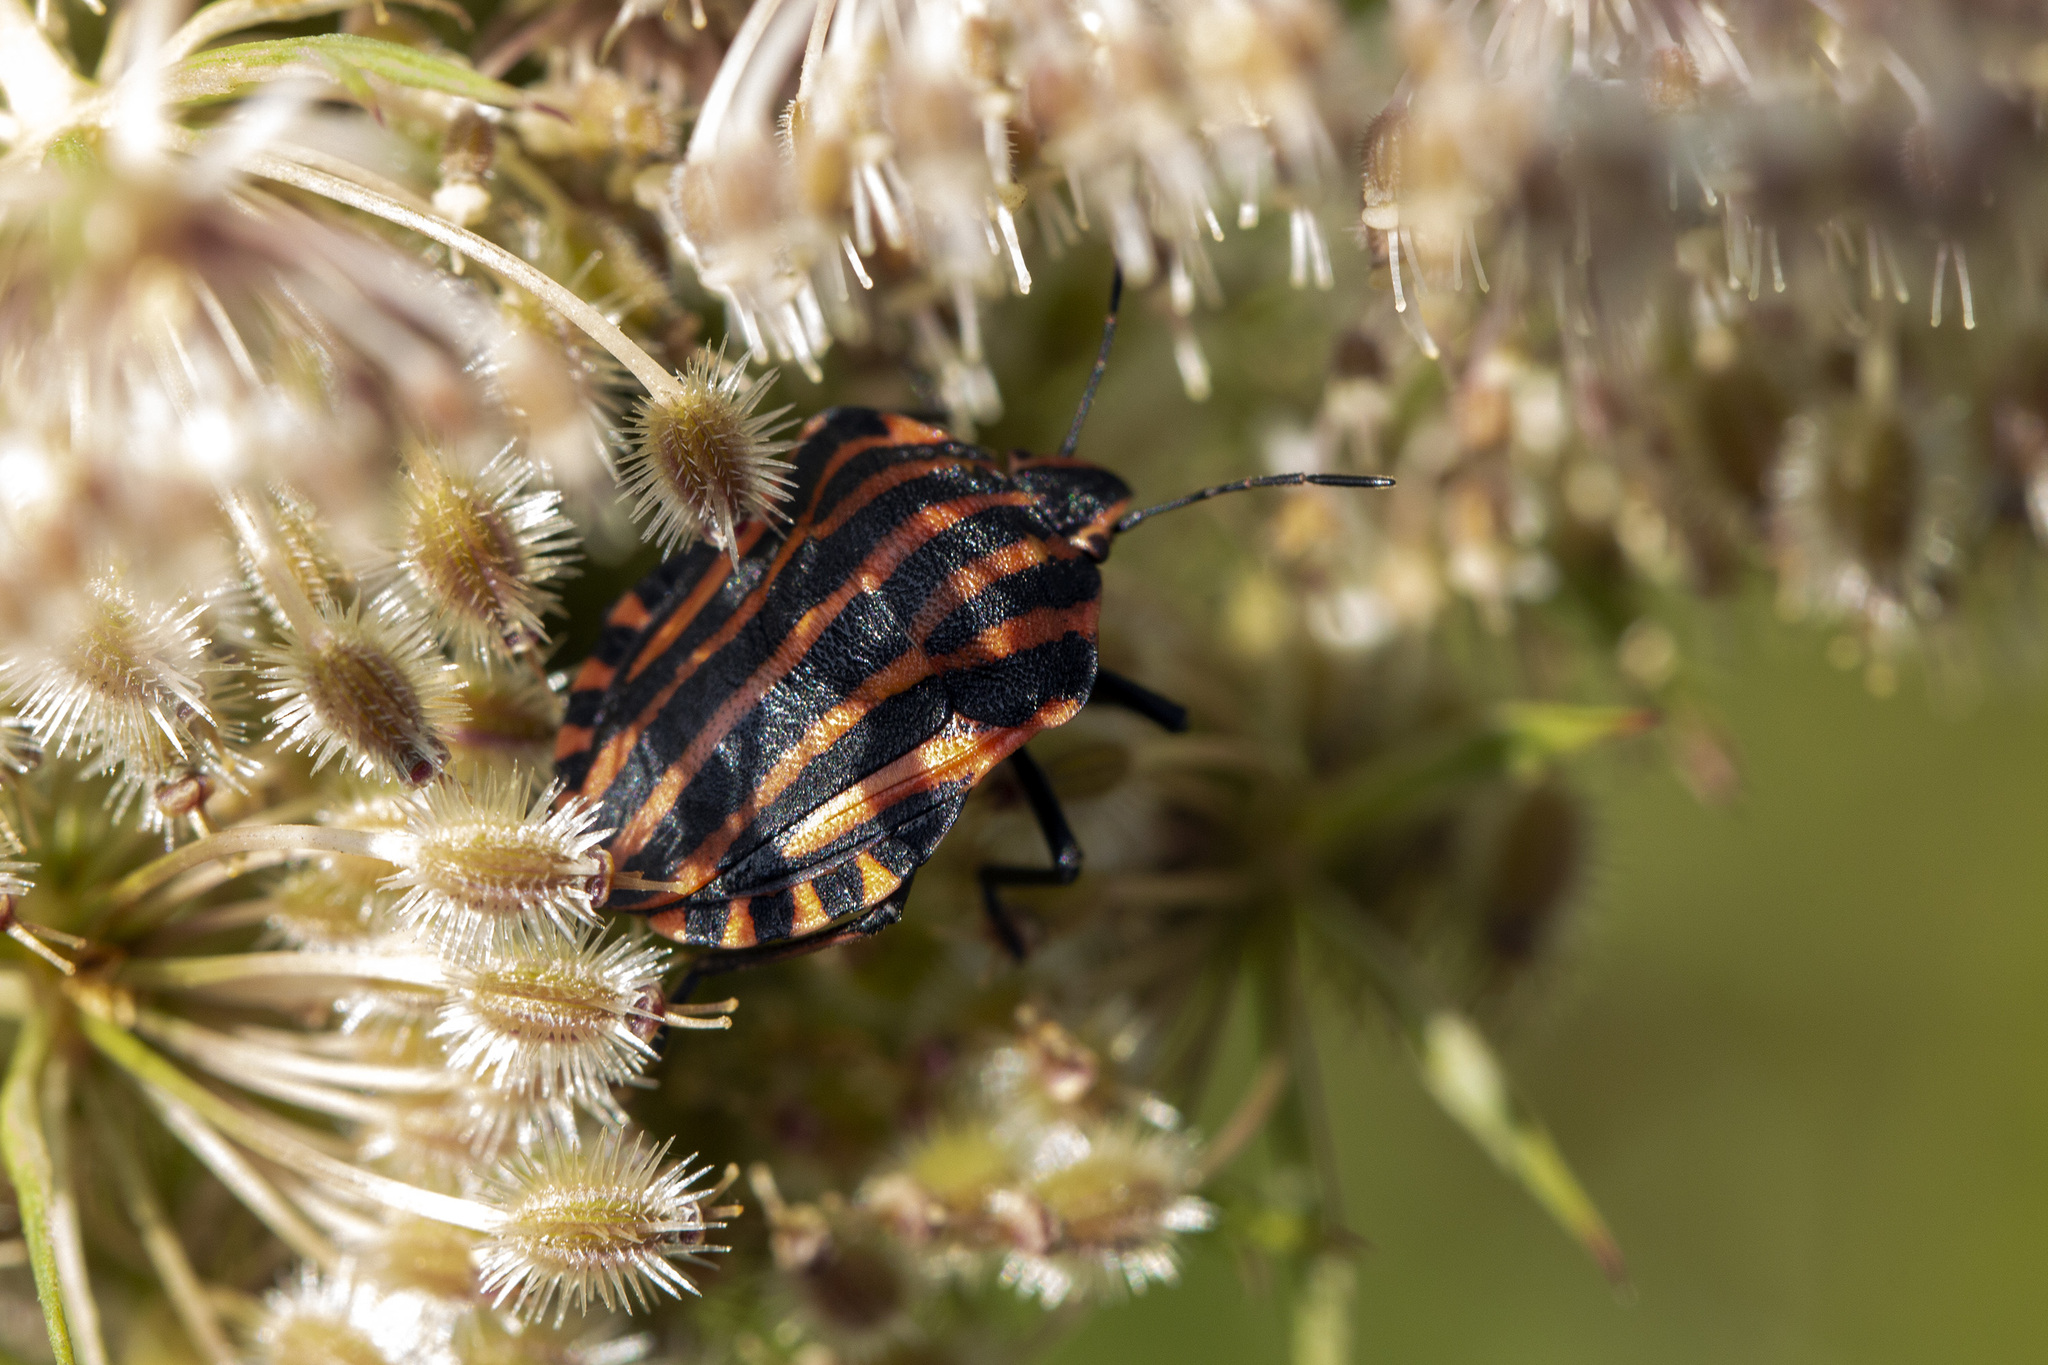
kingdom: Animalia
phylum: Arthropoda
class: Insecta
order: Hemiptera
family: Pentatomidae
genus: Graphosoma
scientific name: Graphosoma italicum
